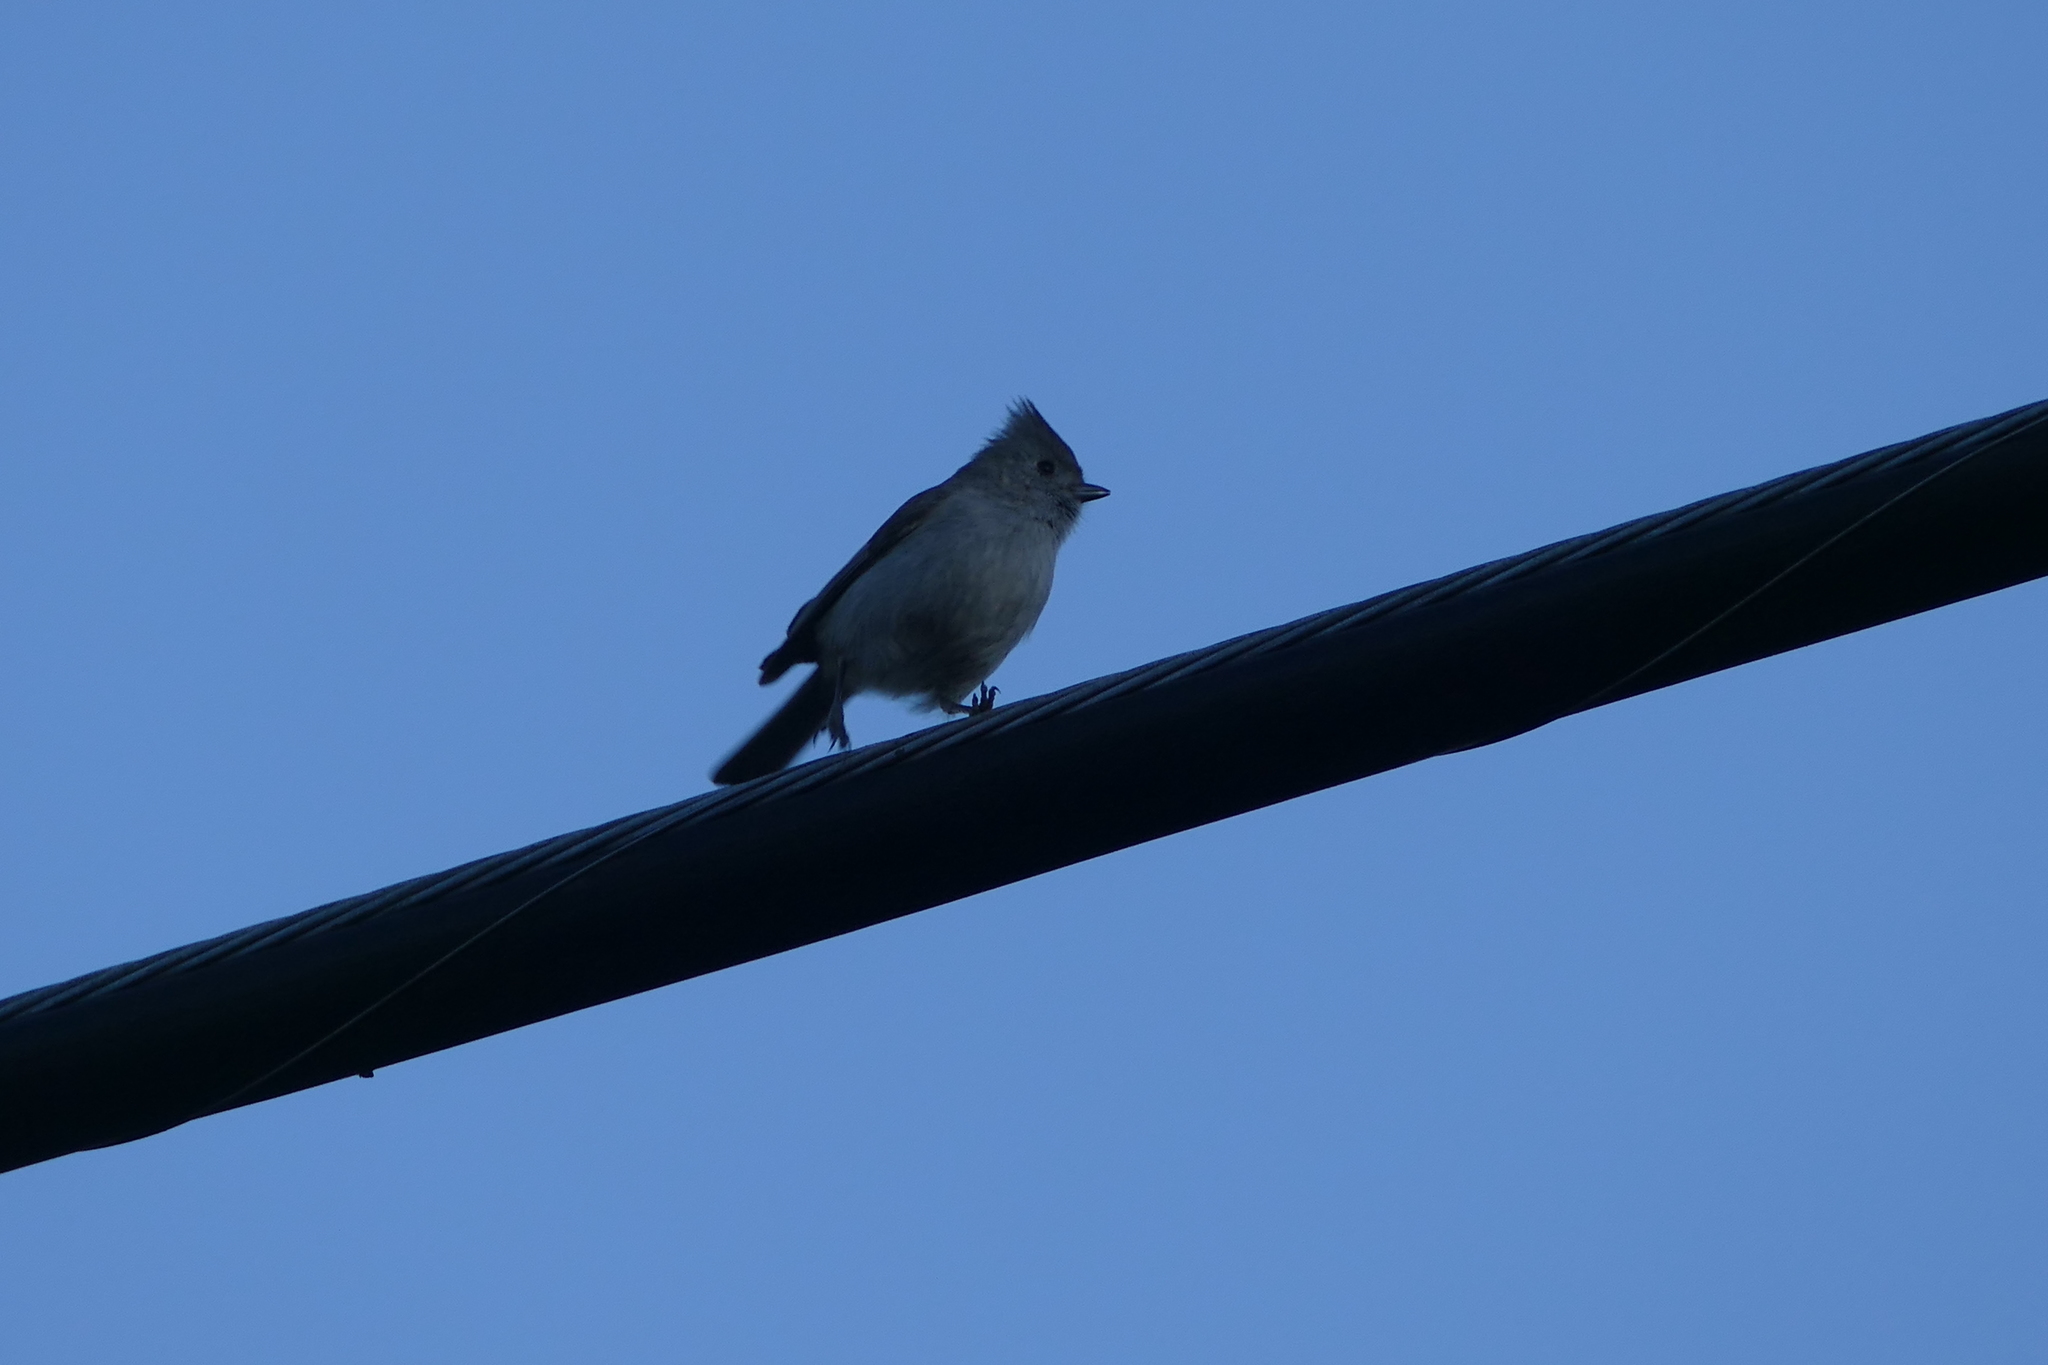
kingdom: Animalia
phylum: Chordata
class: Aves
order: Passeriformes
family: Paridae
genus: Baeolophus
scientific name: Baeolophus inornatus
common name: Oak titmouse
